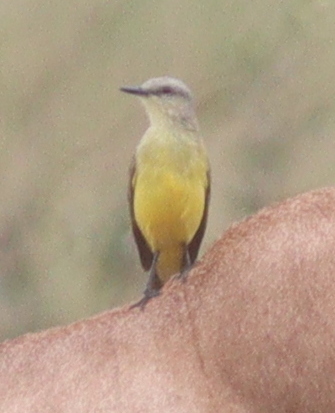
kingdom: Animalia
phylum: Chordata
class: Aves
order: Passeriformes
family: Tyrannidae
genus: Machetornis
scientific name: Machetornis rixosa
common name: Cattle tyrant
